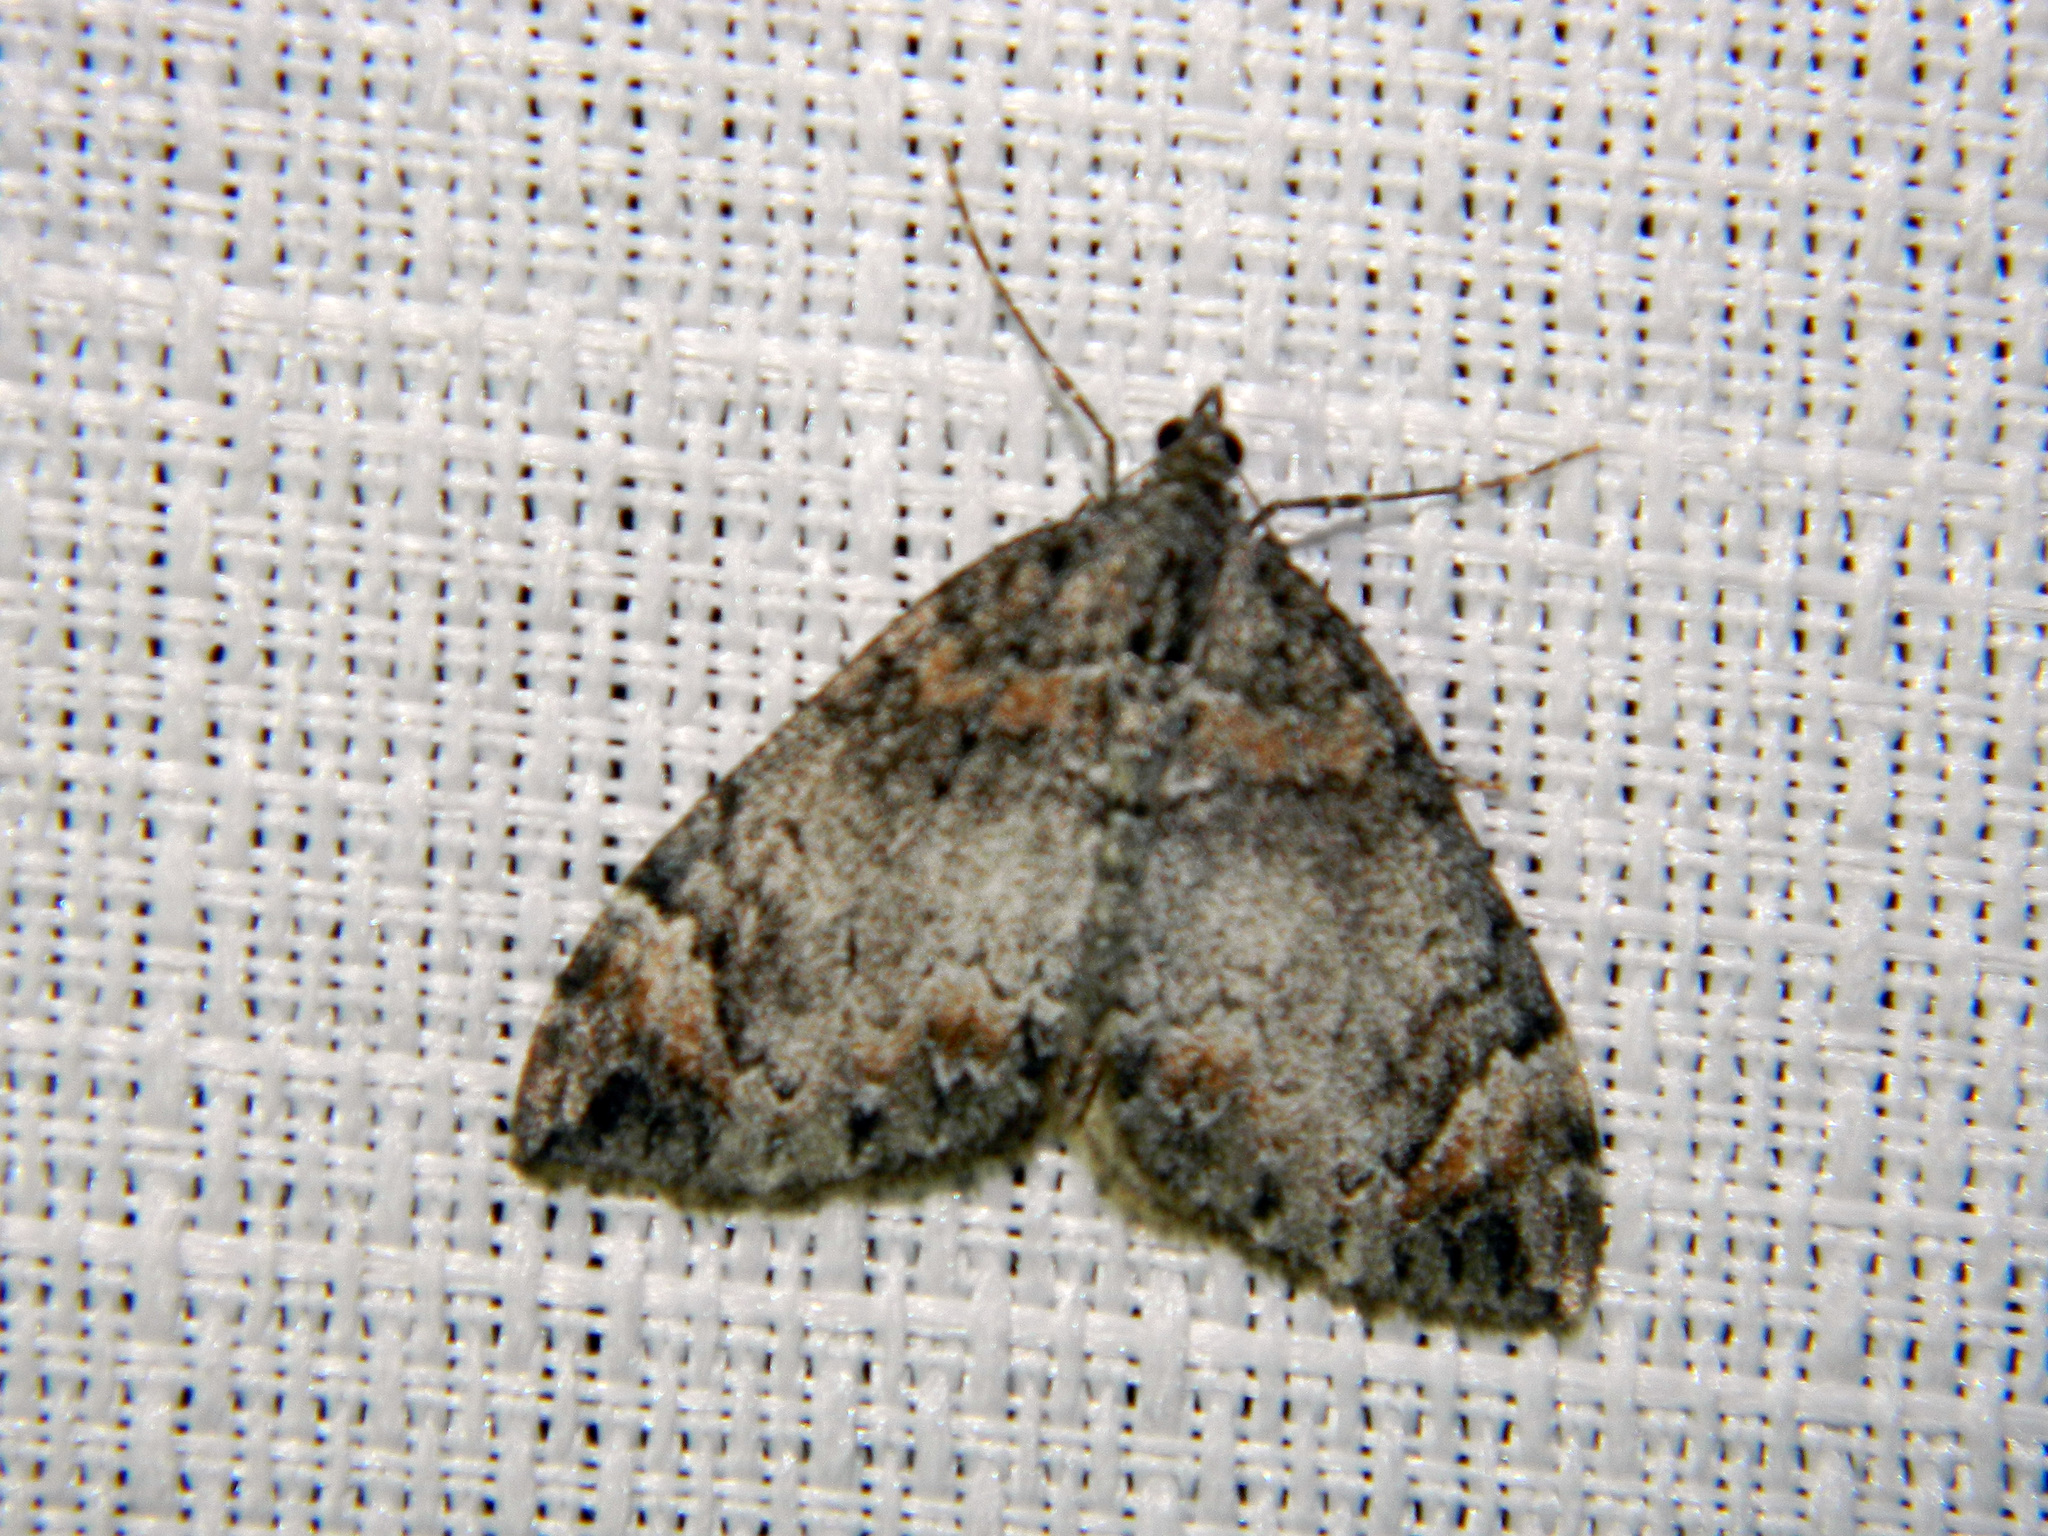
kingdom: Animalia
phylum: Arthropoda
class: Insecta
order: Lepidoptera
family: Geometridae
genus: Dysstroma
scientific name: Dysstroma citrata
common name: Dark marbled carpet
